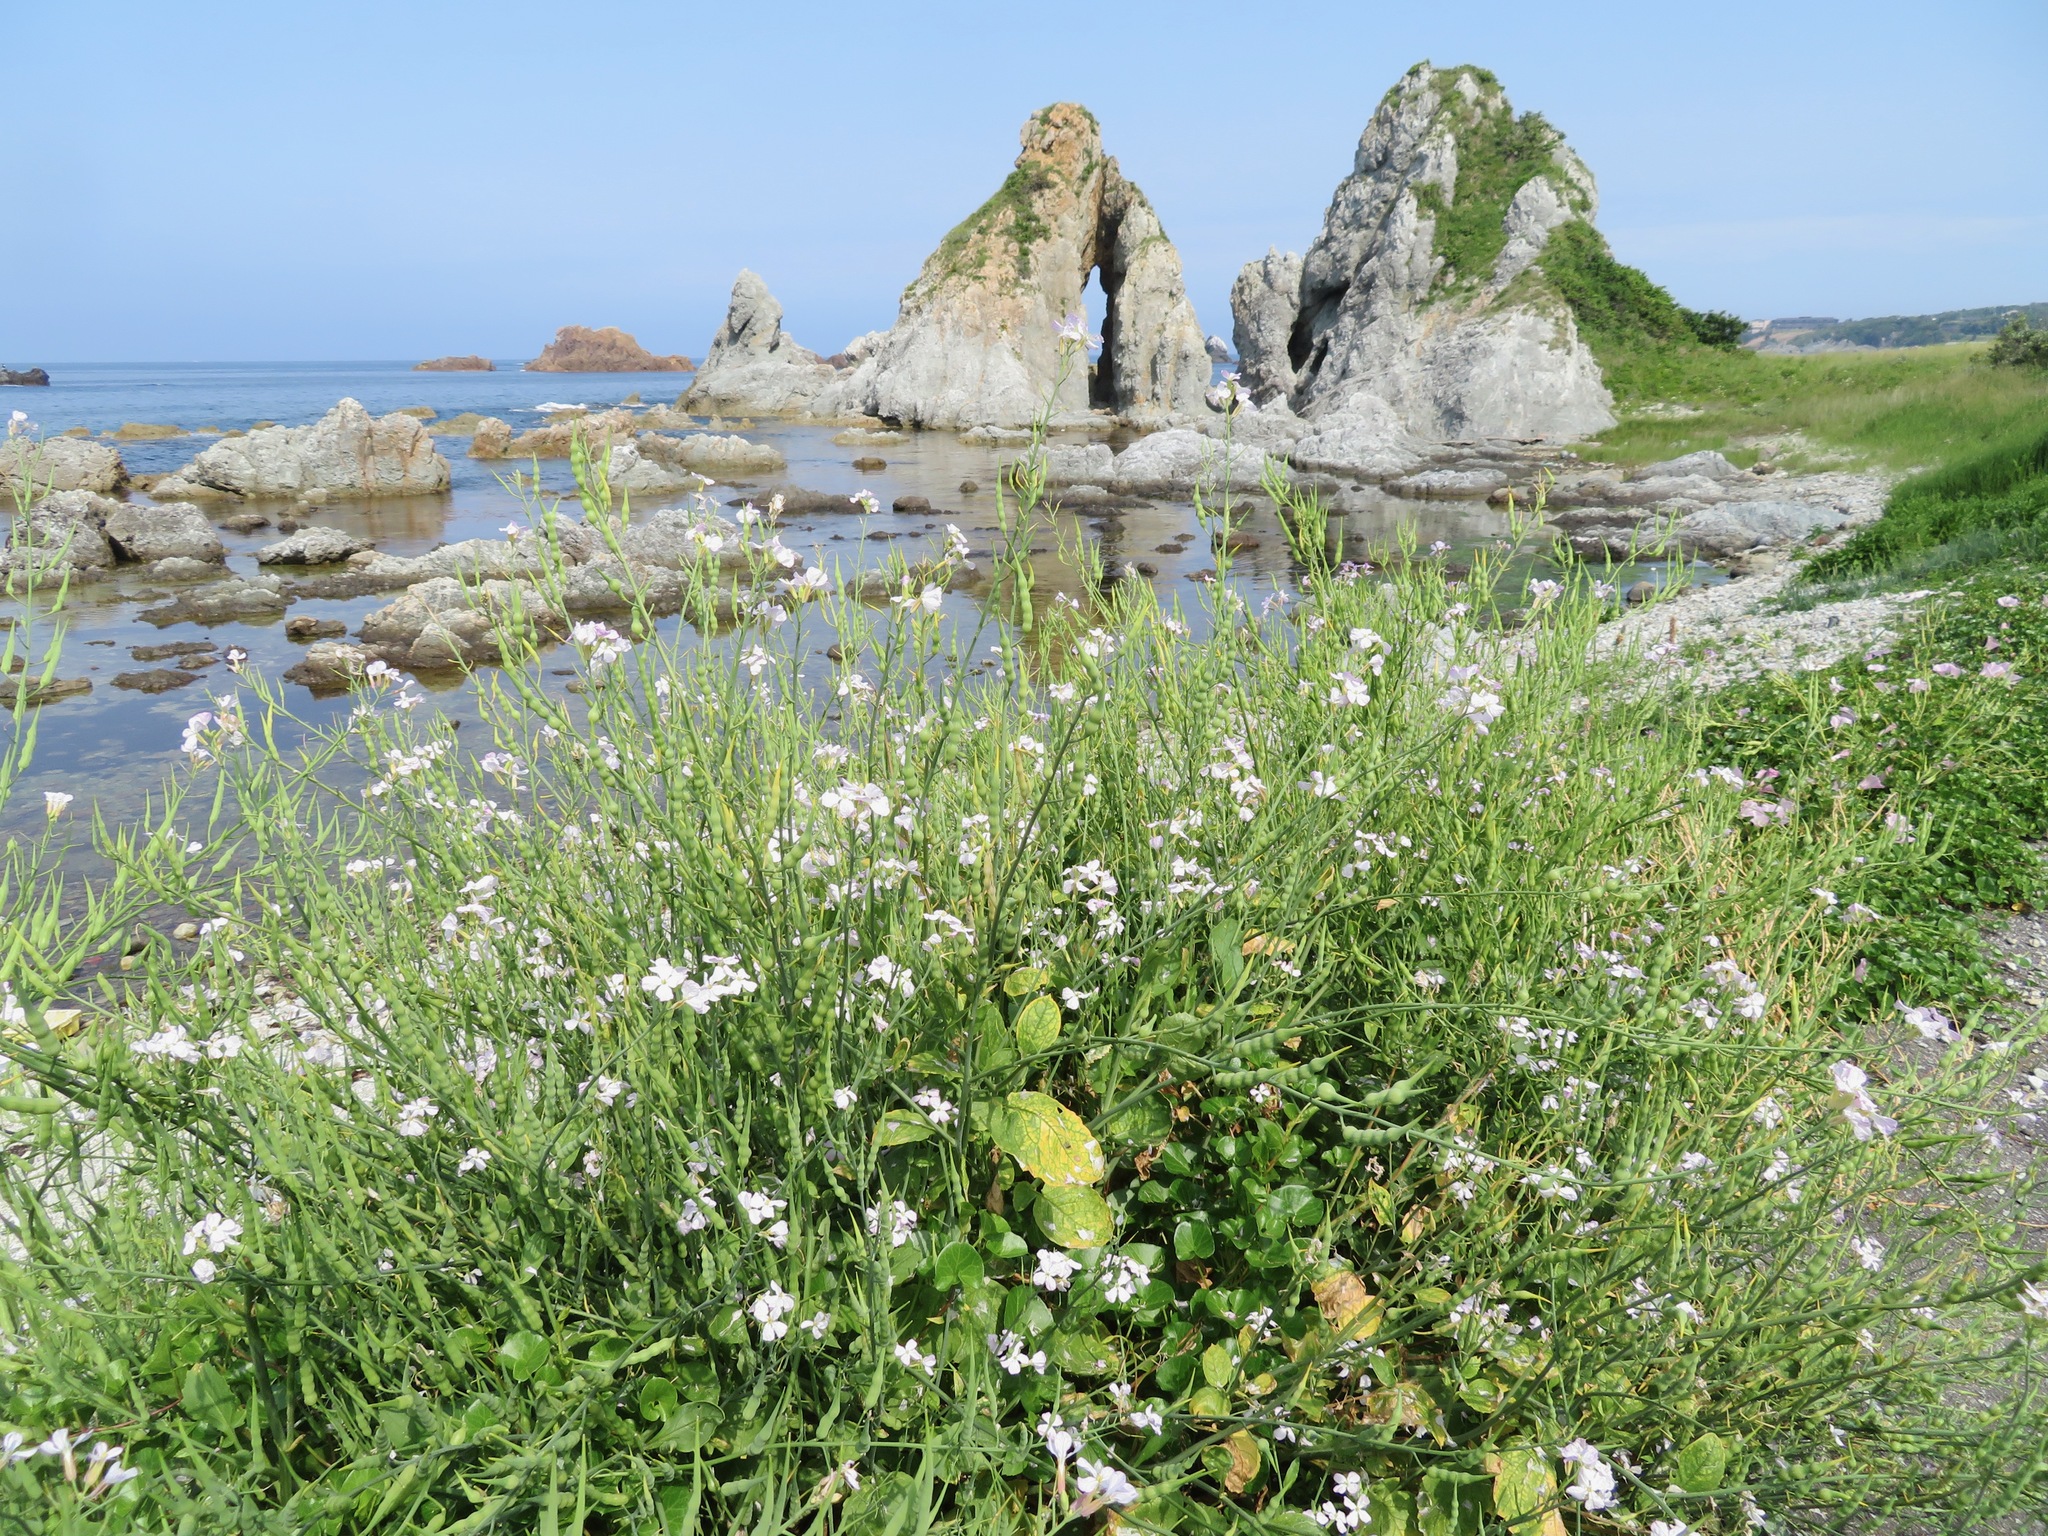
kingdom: Plantae
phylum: Tracheophyta
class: Magnoliopsida
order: Brassicales
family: Brassicaceae
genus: Raphanus
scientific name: Raphanus sativus
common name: Cultivated radish
